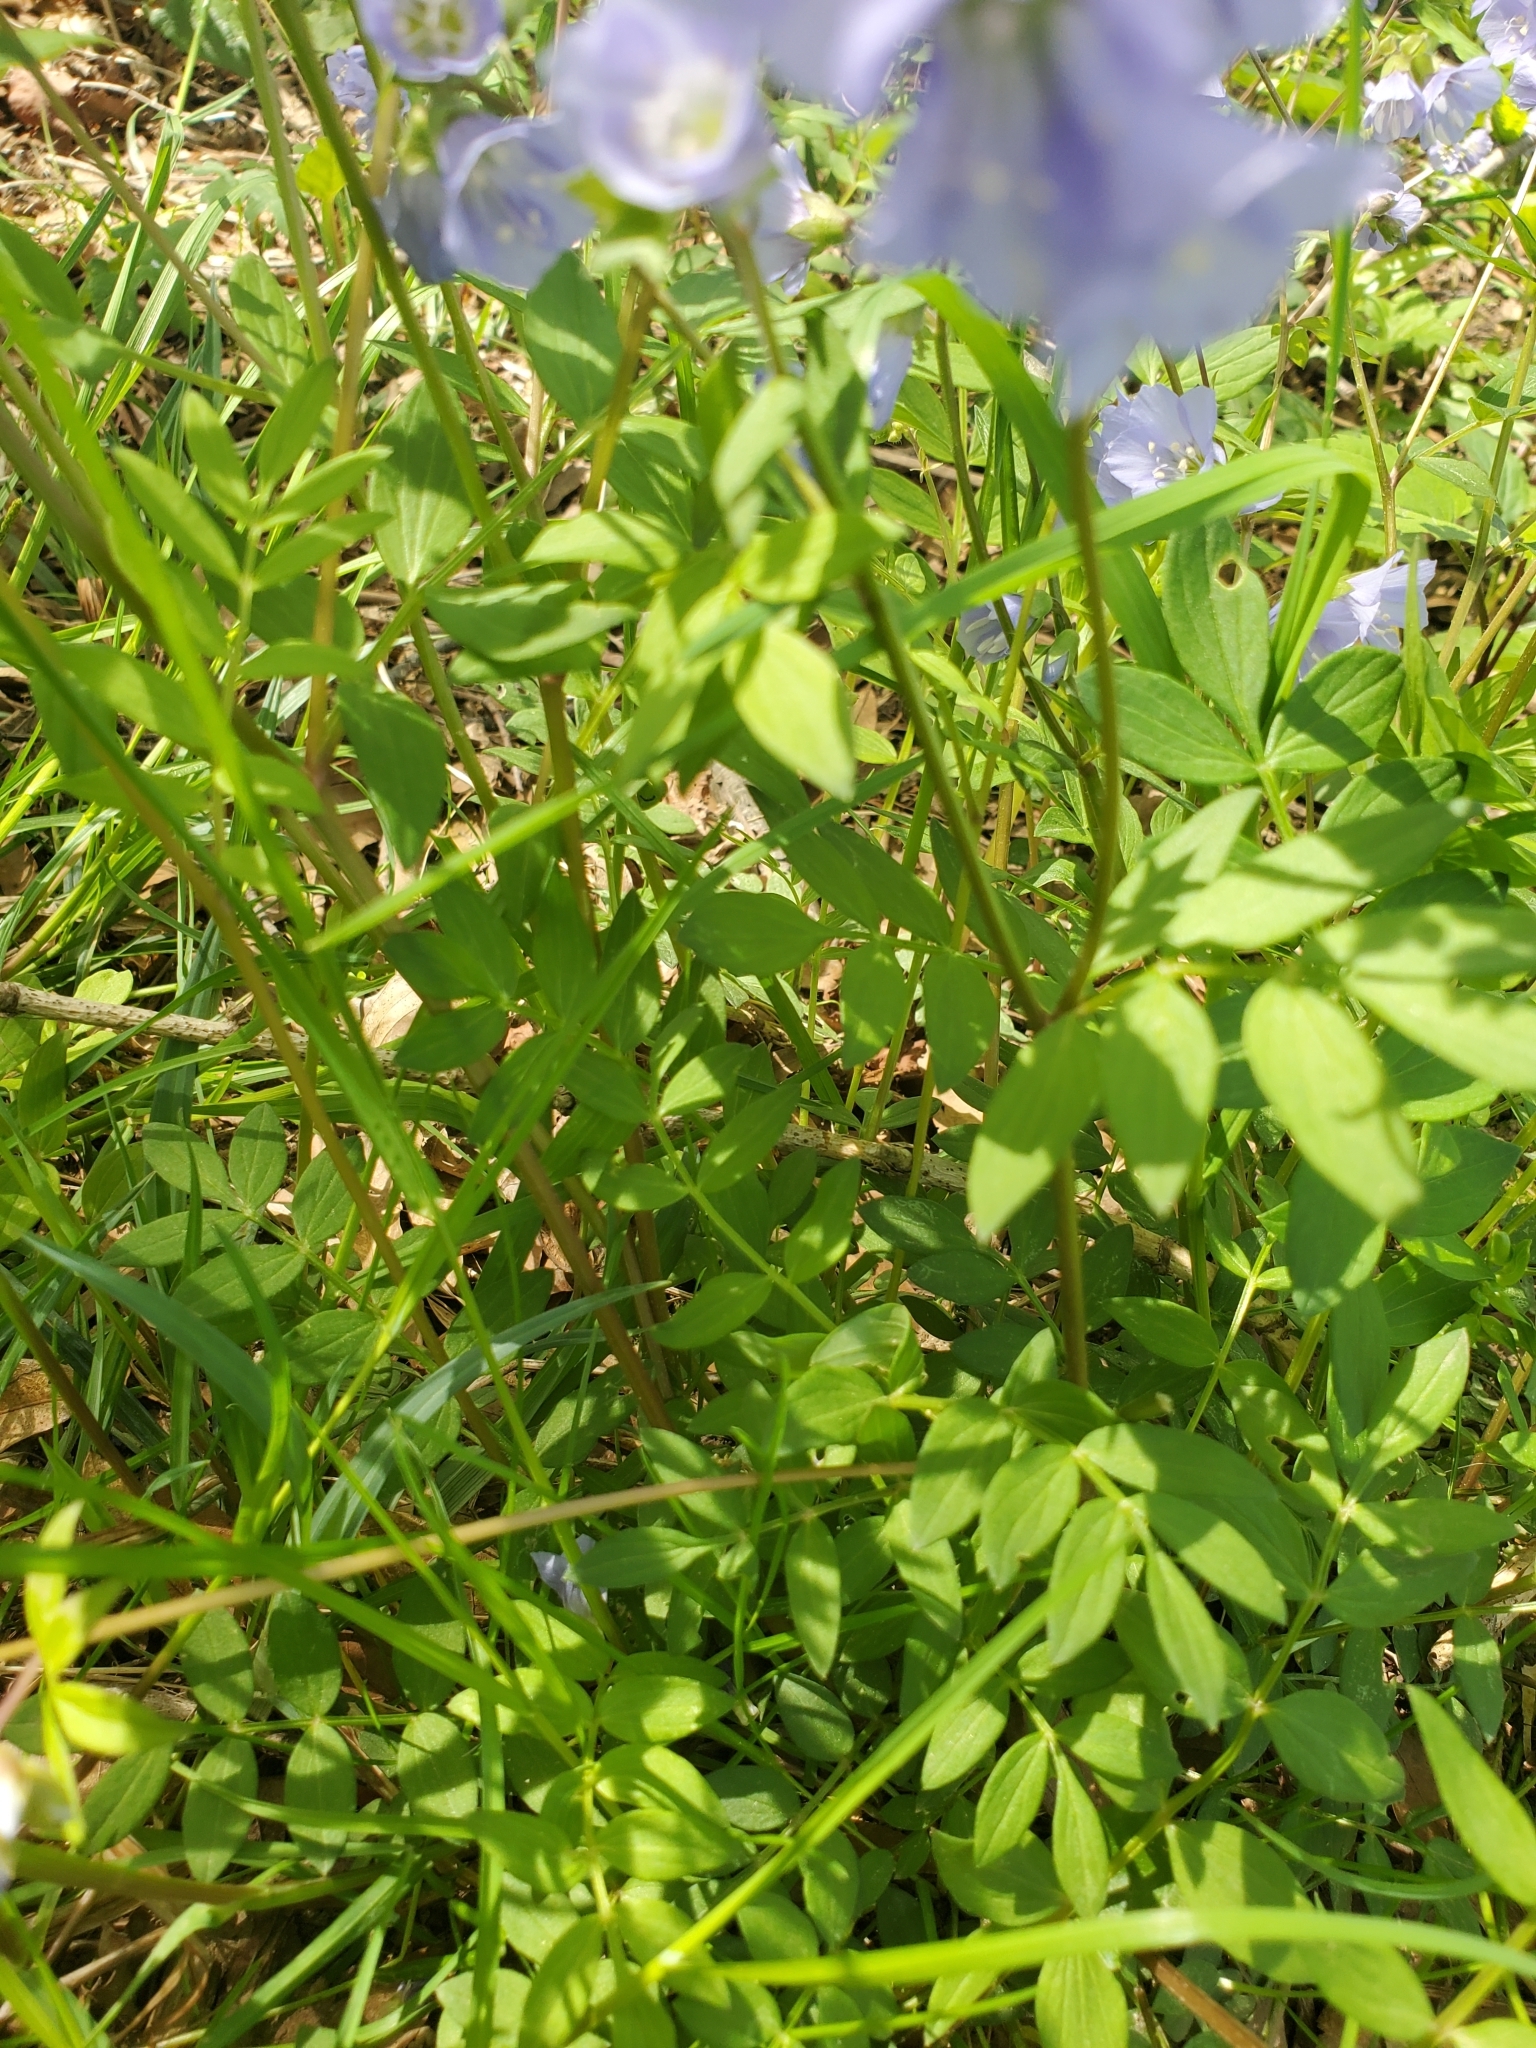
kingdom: Plantae
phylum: Tracheophyta
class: Magnoliopsida
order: Ericales
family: Polemoniaceae
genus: Polemonium
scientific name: Polemonium reptans
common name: Creeping jacob's-ladder
